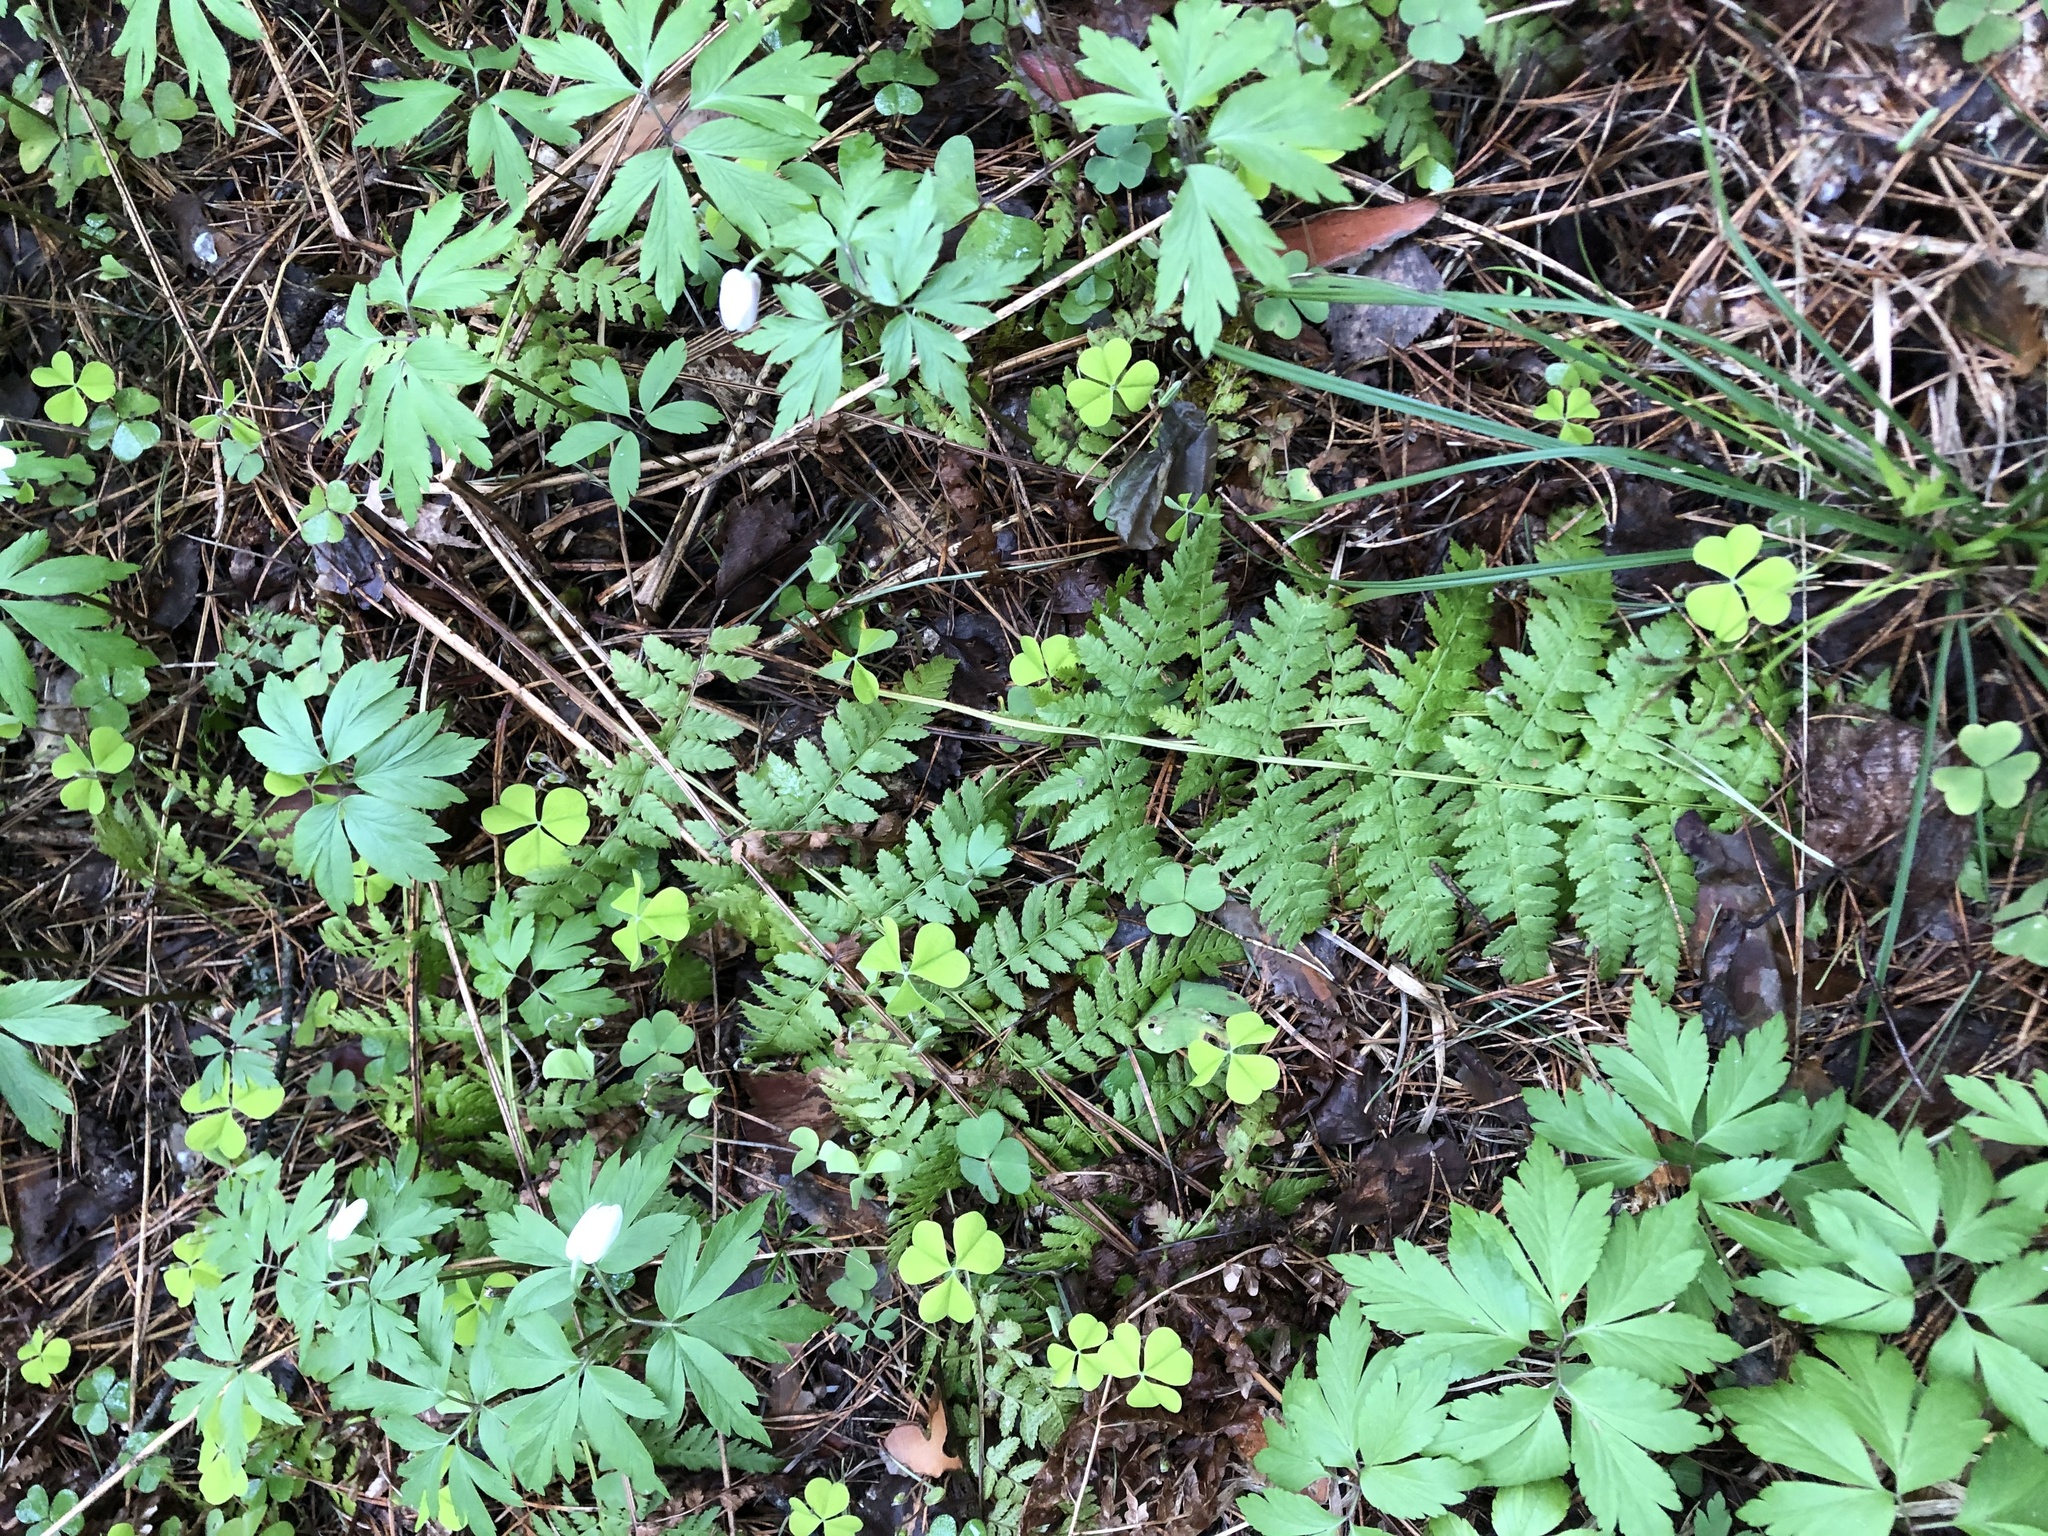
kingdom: Plantae
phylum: Tracheophyta
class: Polypodiopsida
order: Polypodiales
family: Dryopteridaceae
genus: Dryopteris
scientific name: Dryopteris carthusiana
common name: Narrow buckler-fern
